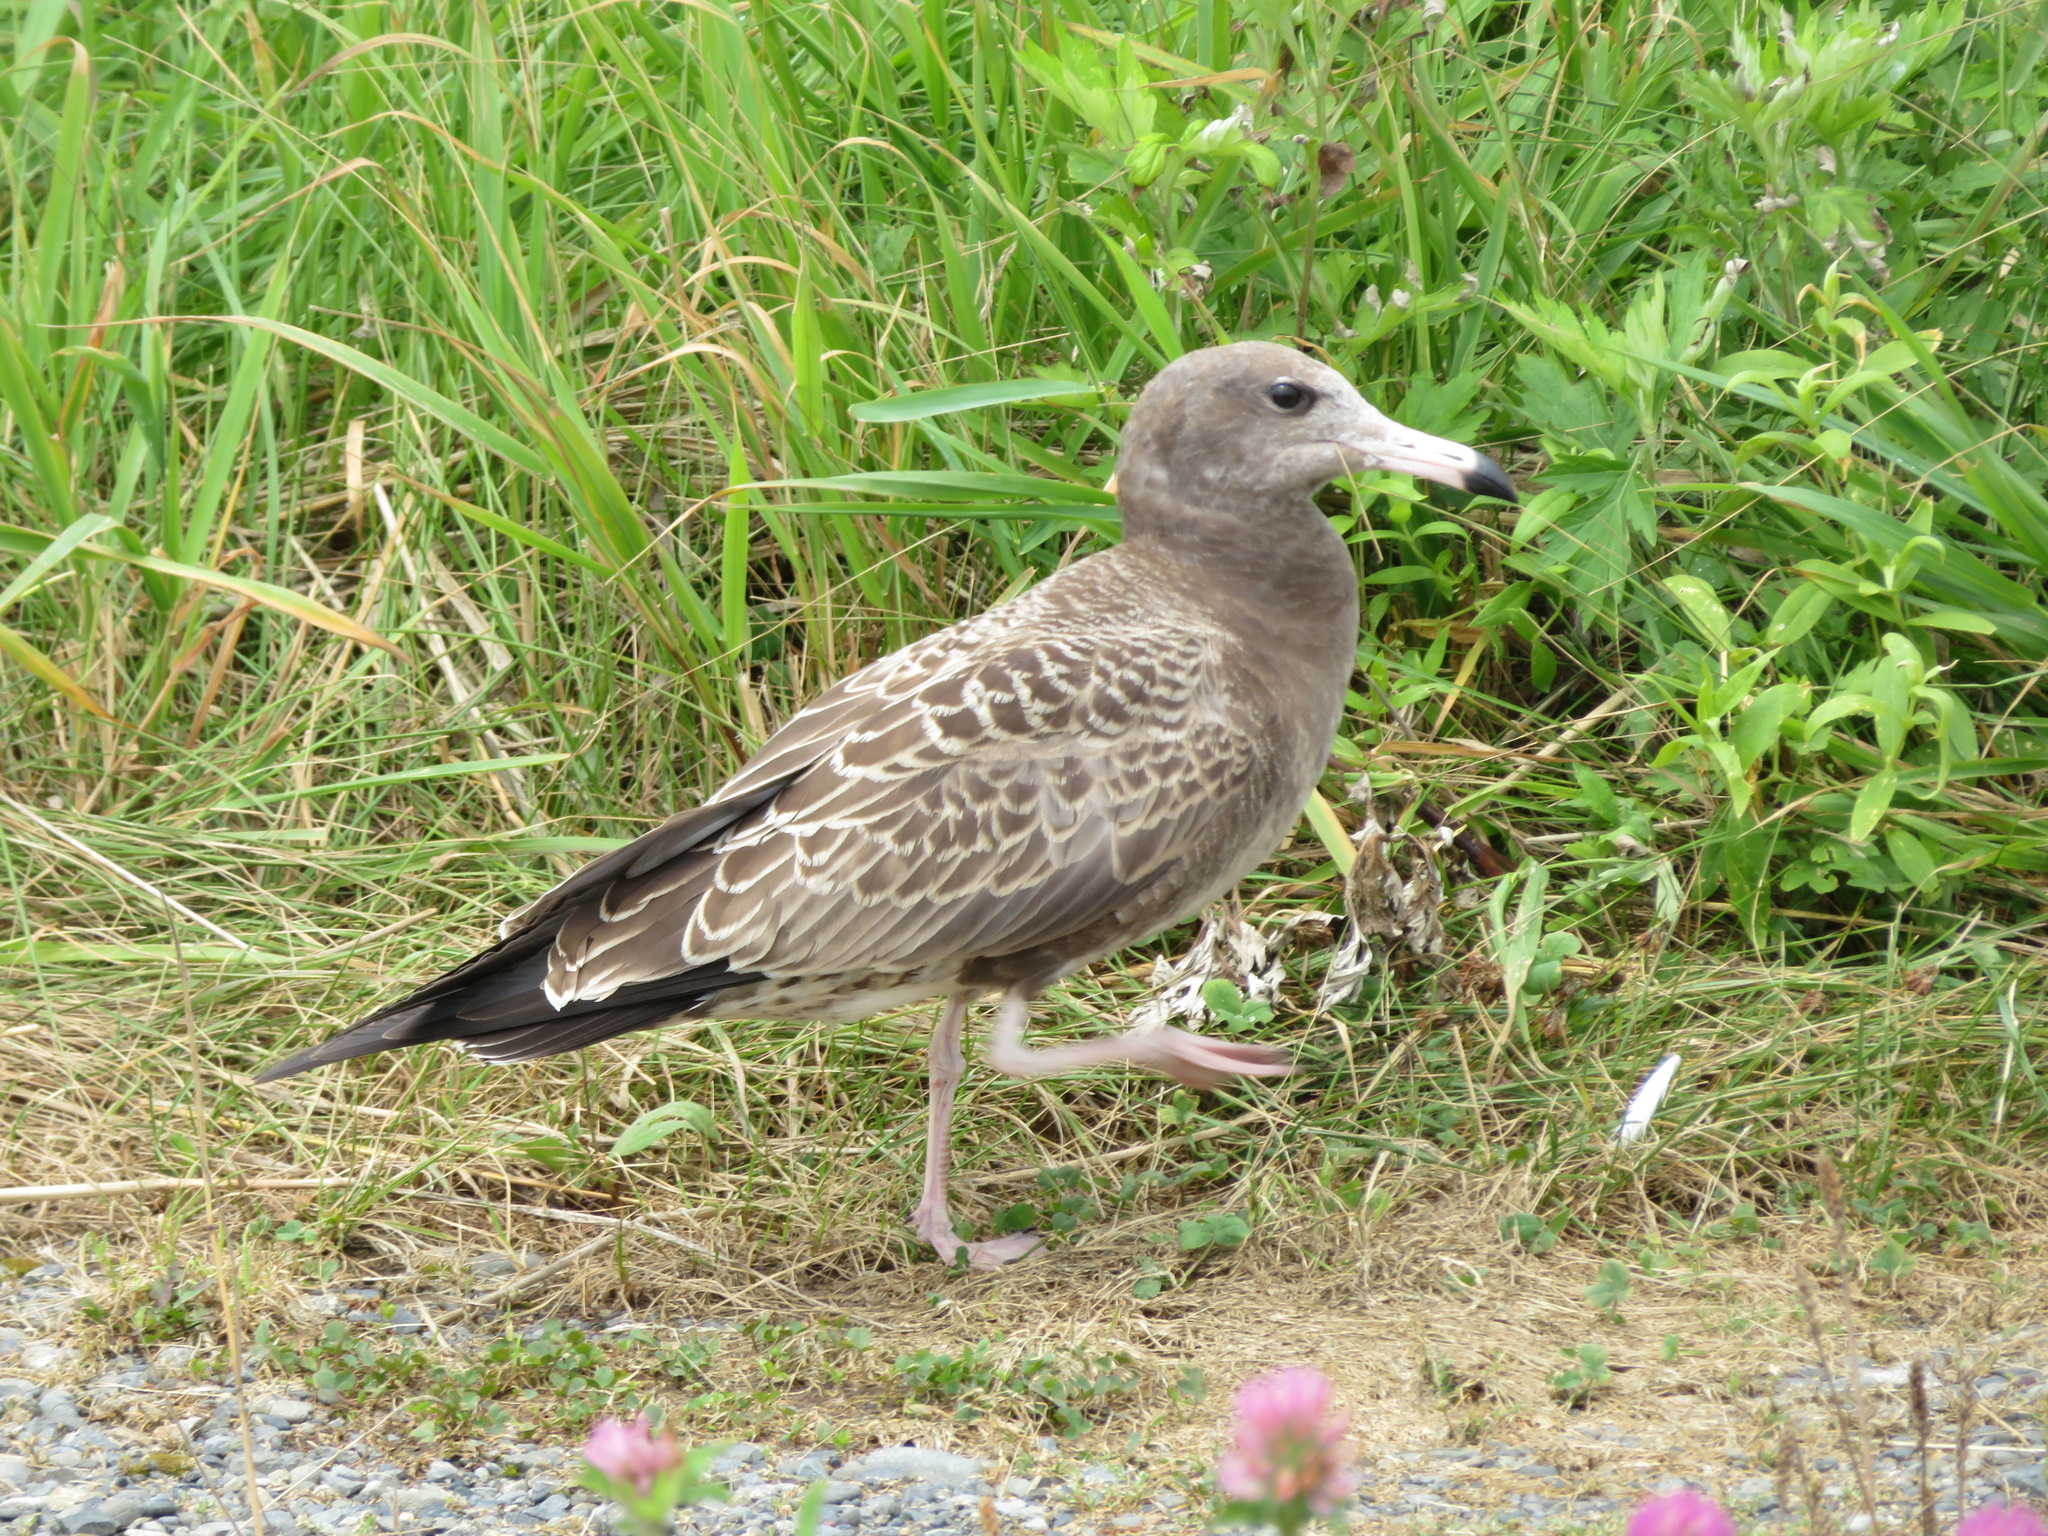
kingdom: Animalia
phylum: Chordata
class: Aves
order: Charadriiformes
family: Laridae
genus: Larus
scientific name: Larus crassirostris
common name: Black-tailed gull
